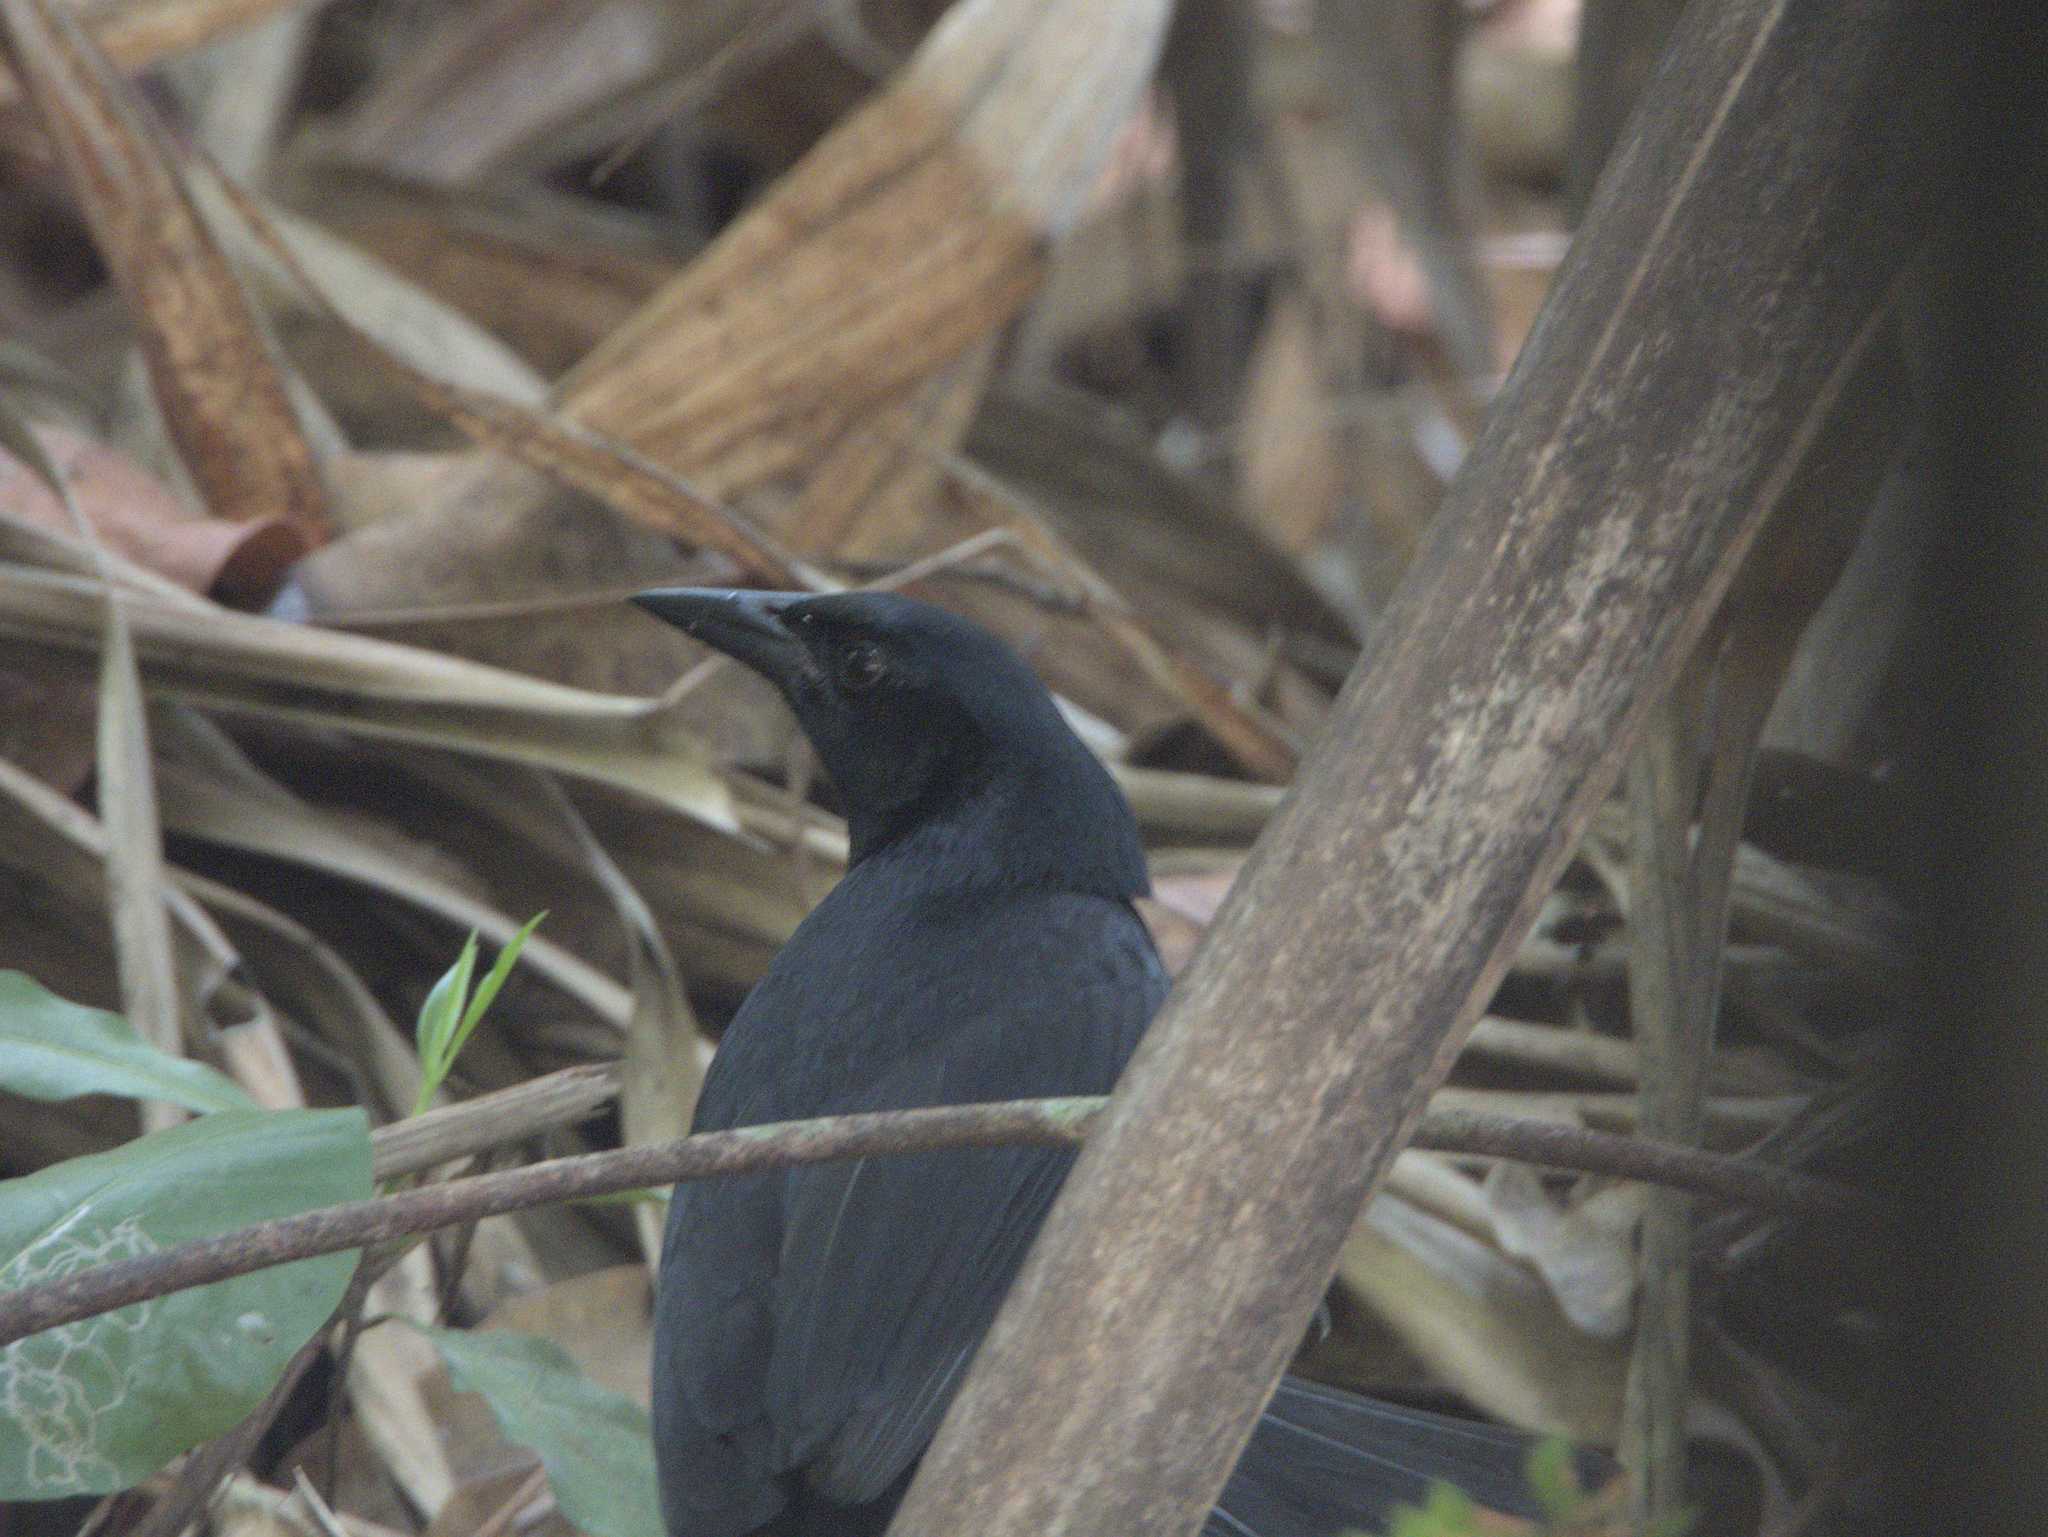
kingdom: Animalia
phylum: Chordata
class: Aves
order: Passeriformes
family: Icteridae
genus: Dives
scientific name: Dives dives
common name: Melodious blackbird
